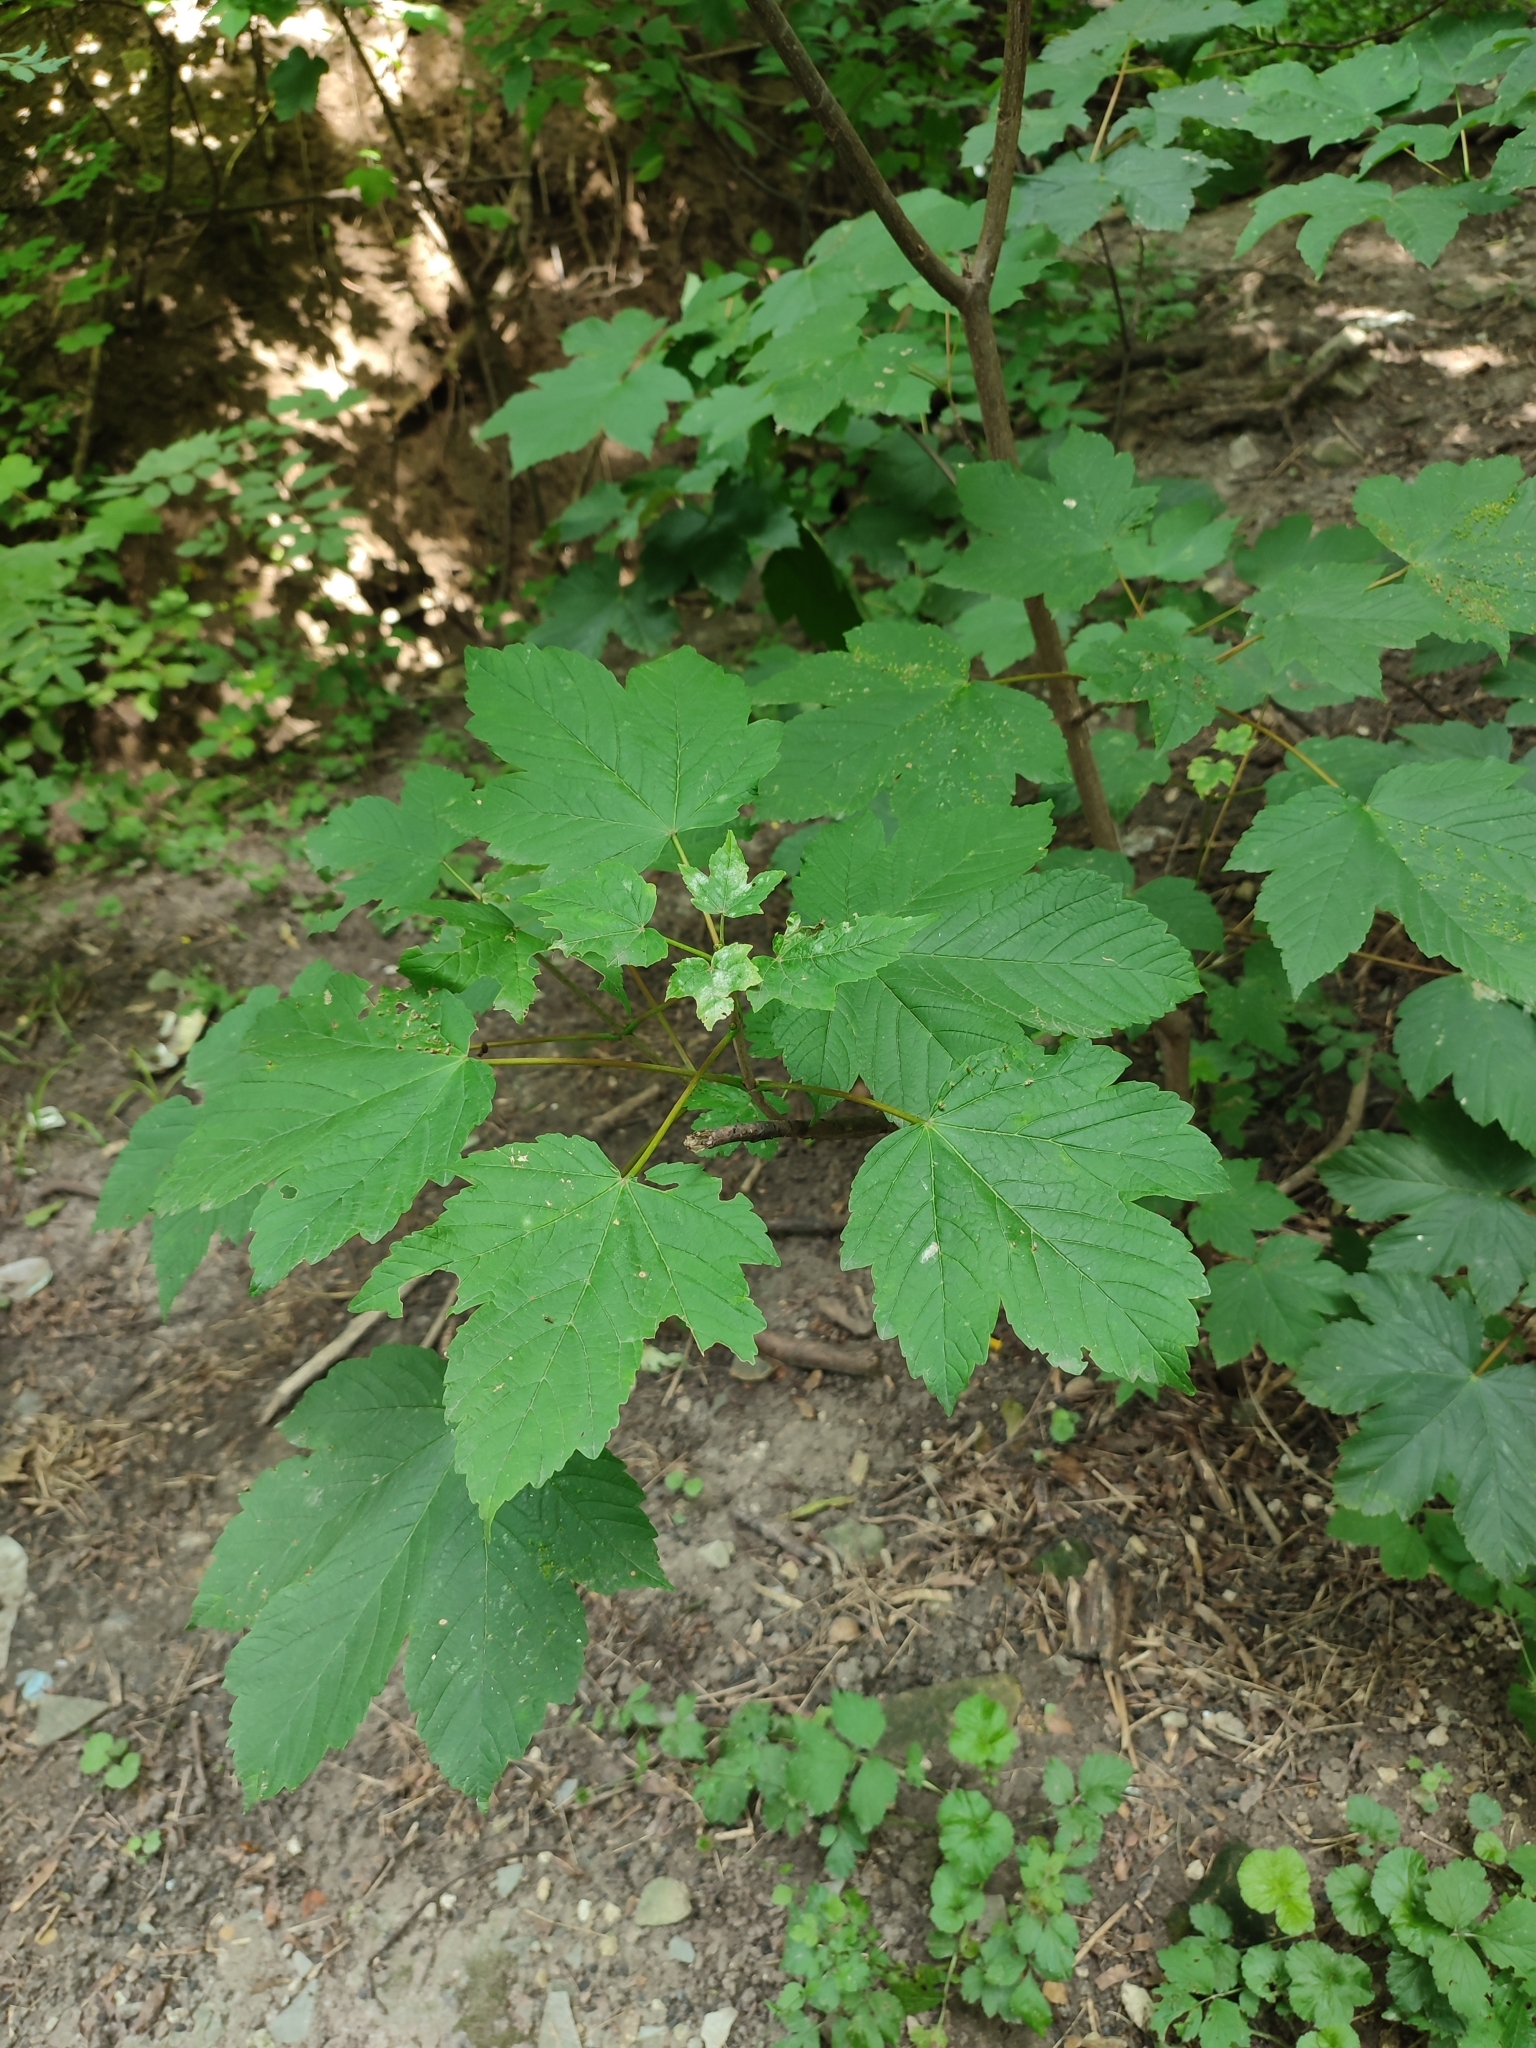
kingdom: Plantae
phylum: Tracheophyta
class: Magnoliopsida
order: Sapindales
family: Sapindaceae
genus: Acer
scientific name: Acer pseudoplatanus
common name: Sycamore
